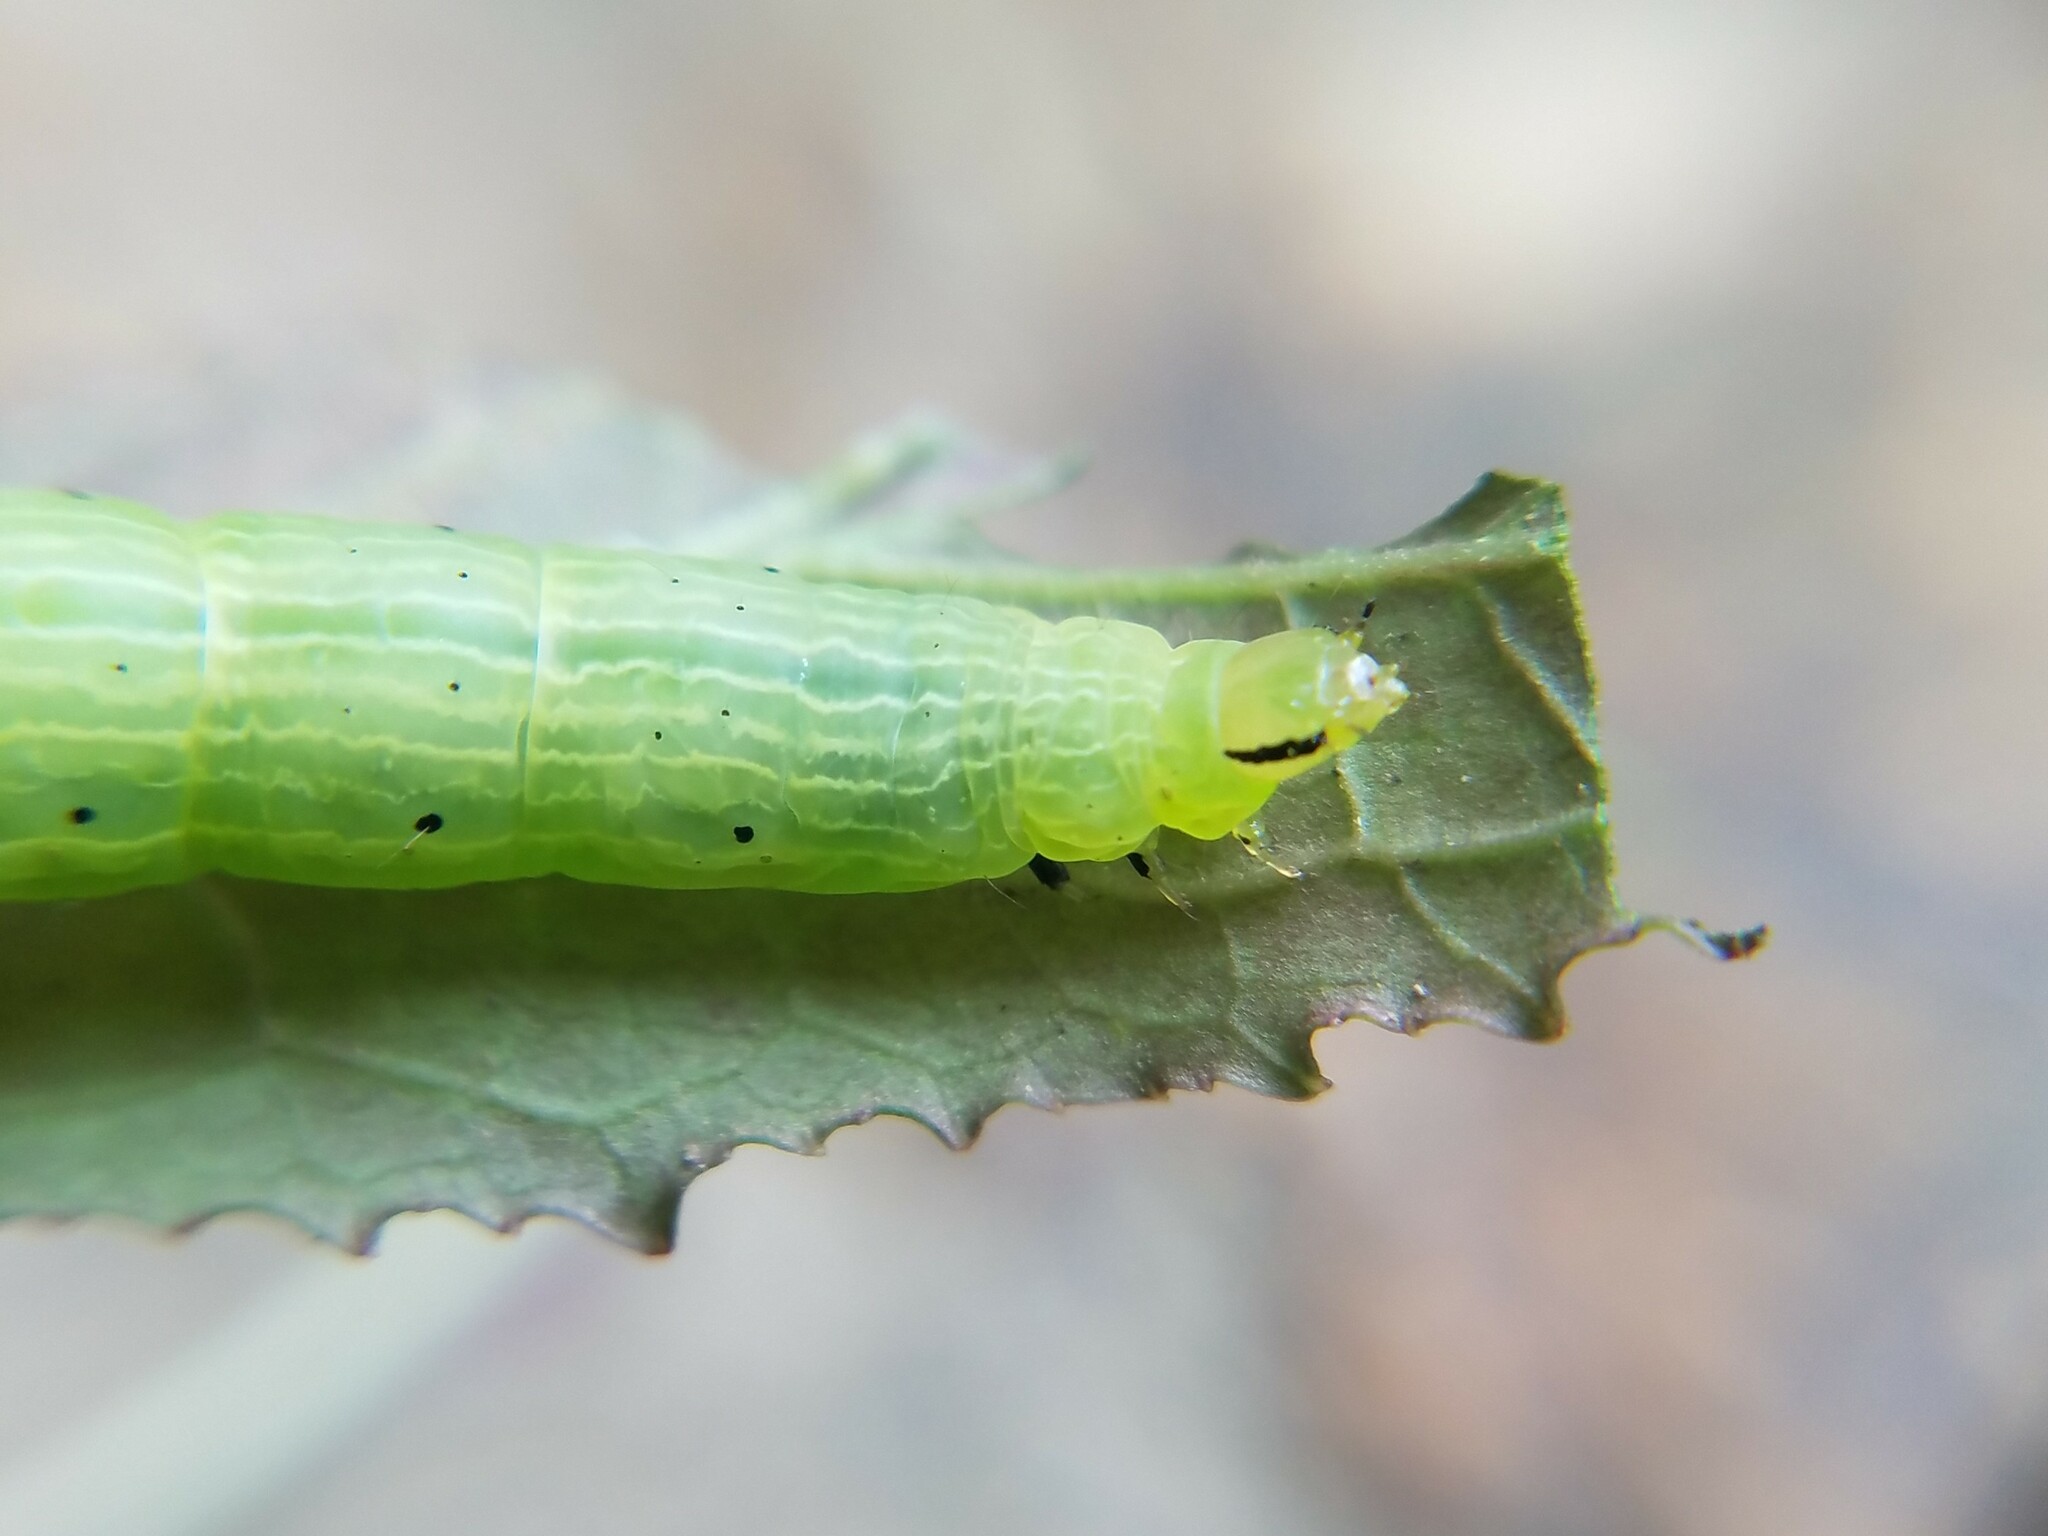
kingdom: Animalia
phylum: Arthropoda
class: Insecta
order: Lepidoptera
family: Noctuidae
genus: Enigmogramma
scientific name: Enigmogramma basigera
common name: Pink-washed looper moth
